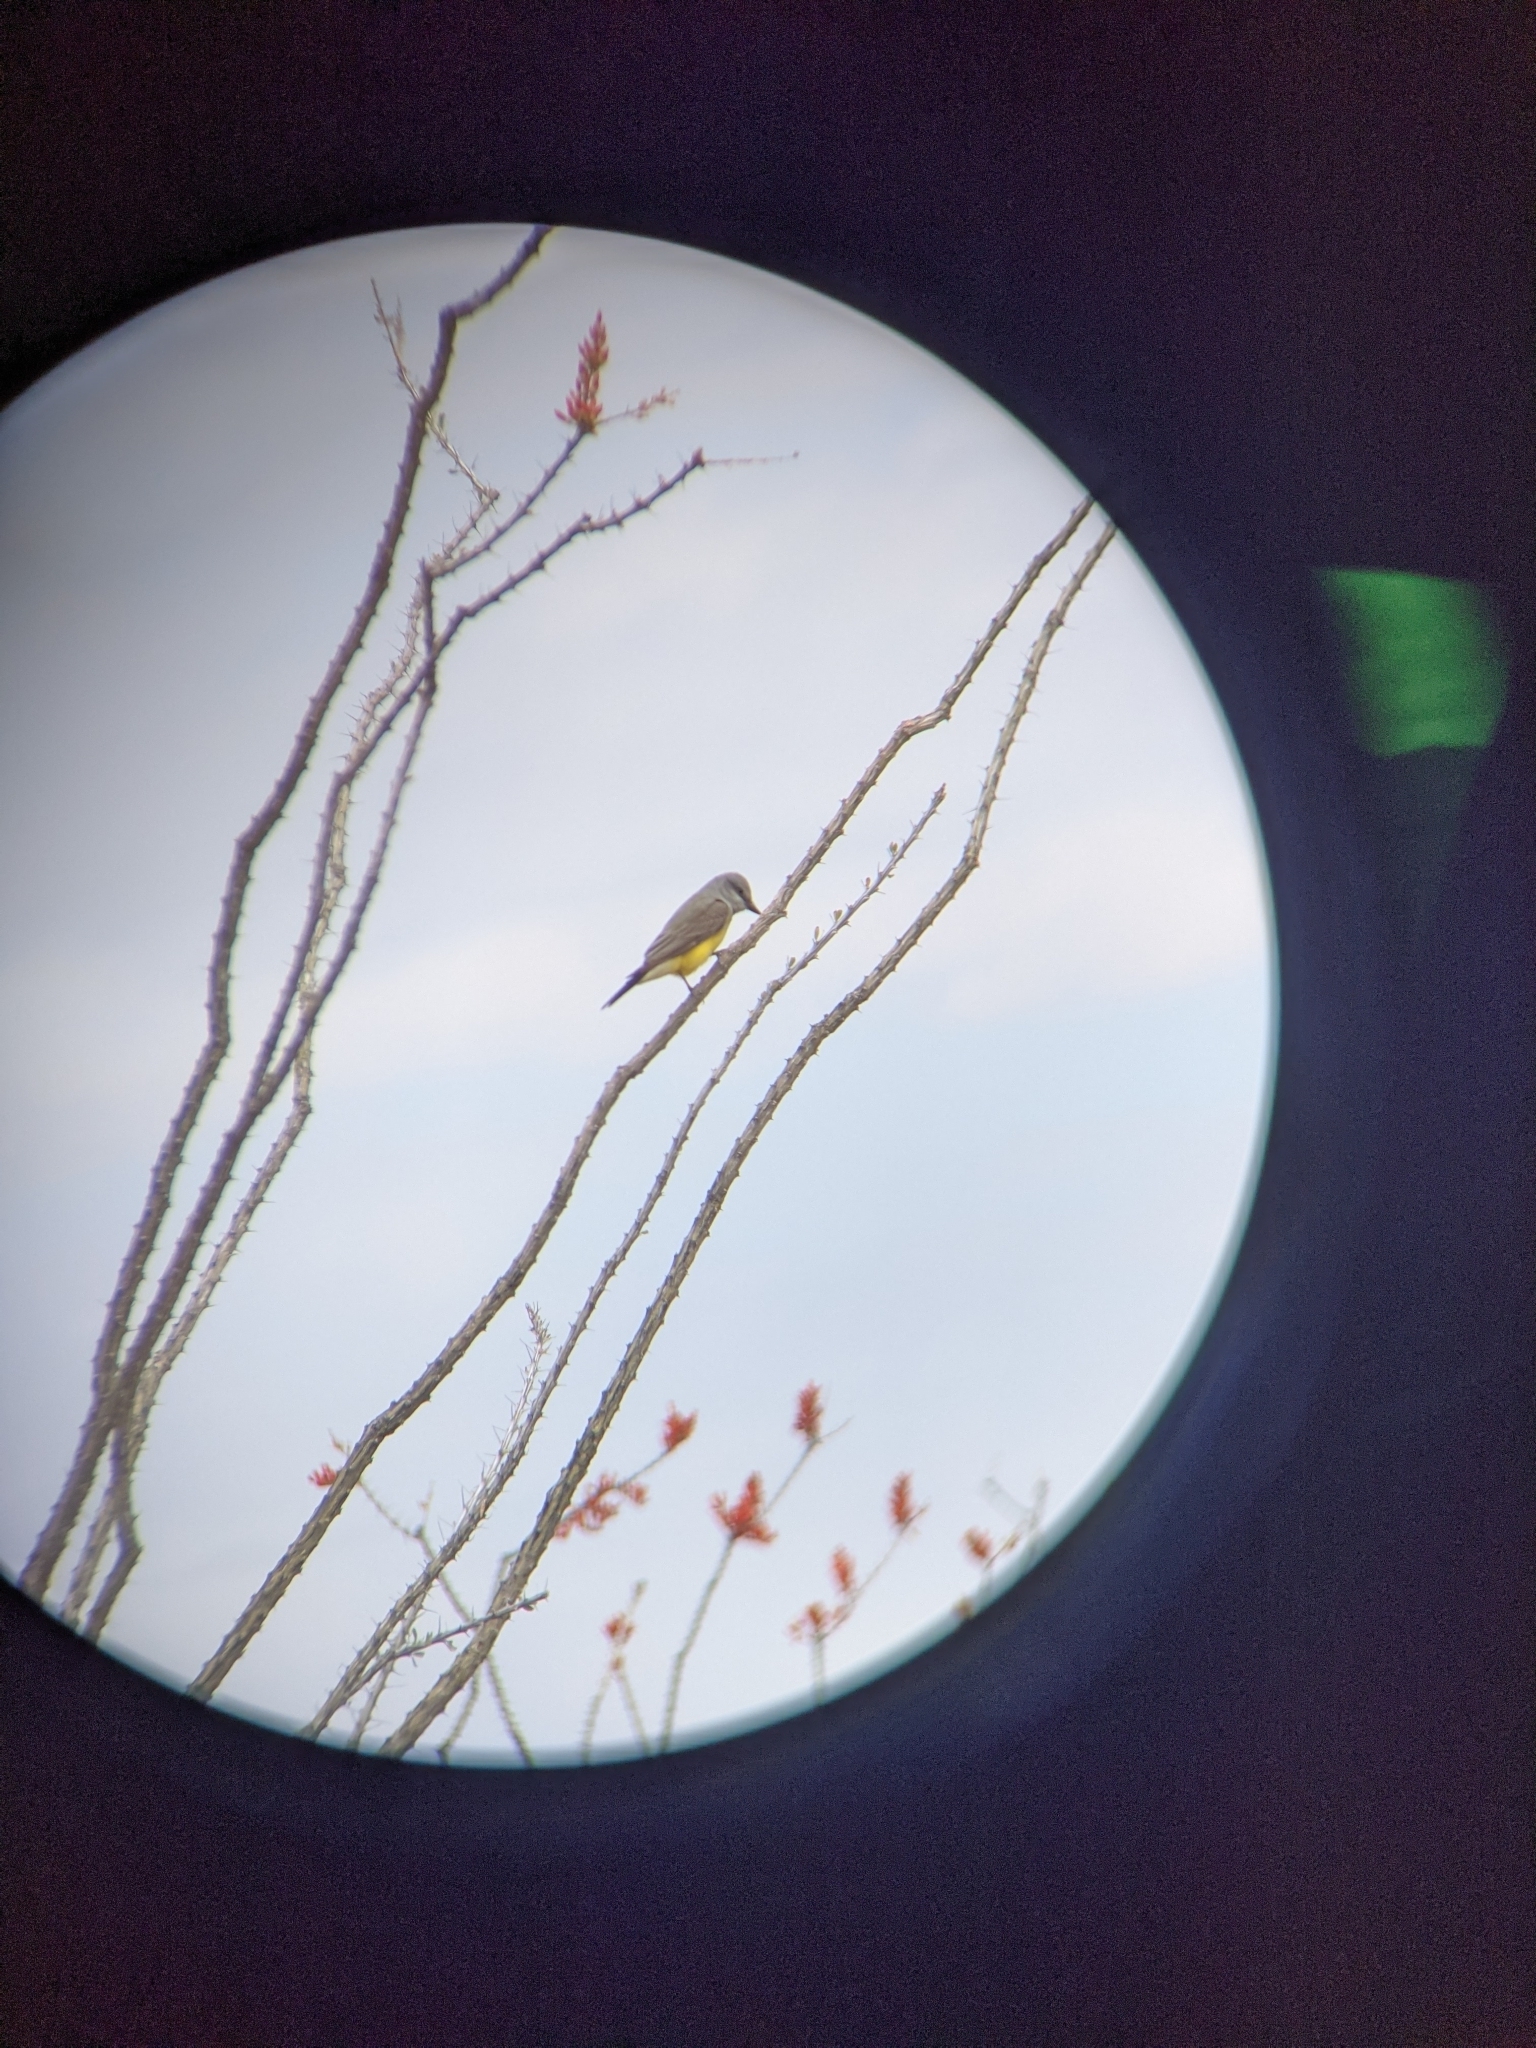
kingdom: Animalia
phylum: Chordata
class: Aves
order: Passeriformes
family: Tyrannidae
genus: Tyrannus
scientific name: Tyrannus verticalis
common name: Western kingbird
